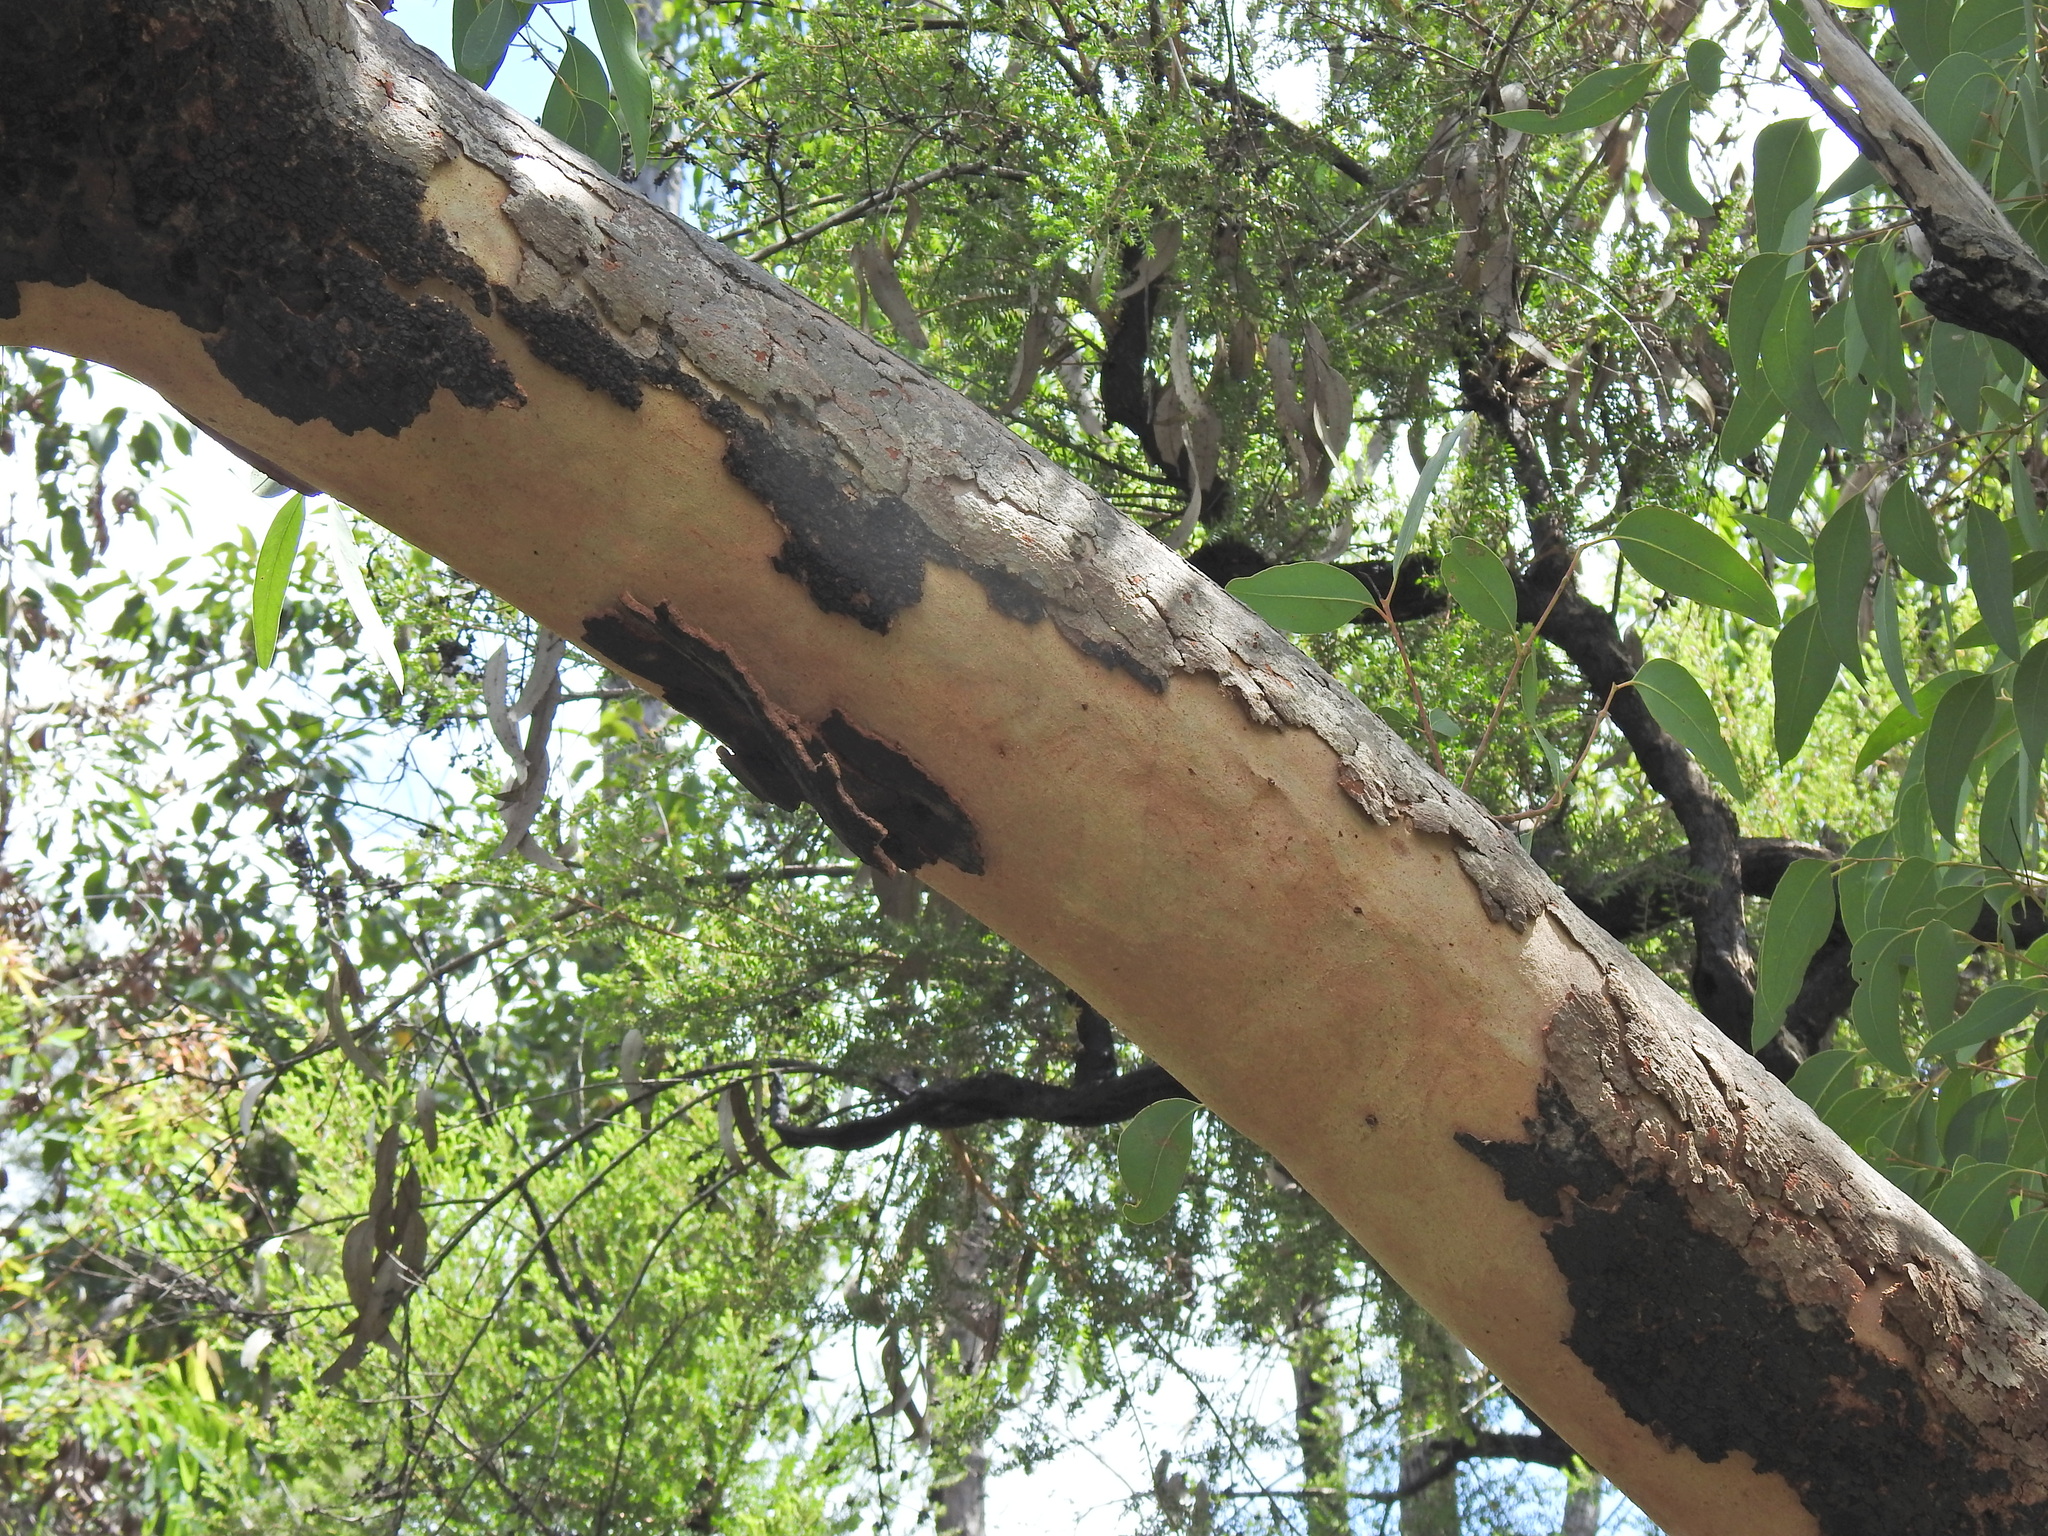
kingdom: Plantae
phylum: Tracheophyta
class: Magnoliopsida
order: Myrtales
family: Myrtaceae
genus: Eucalyptus
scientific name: Eucalyptus bancroftii
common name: Blue gum
